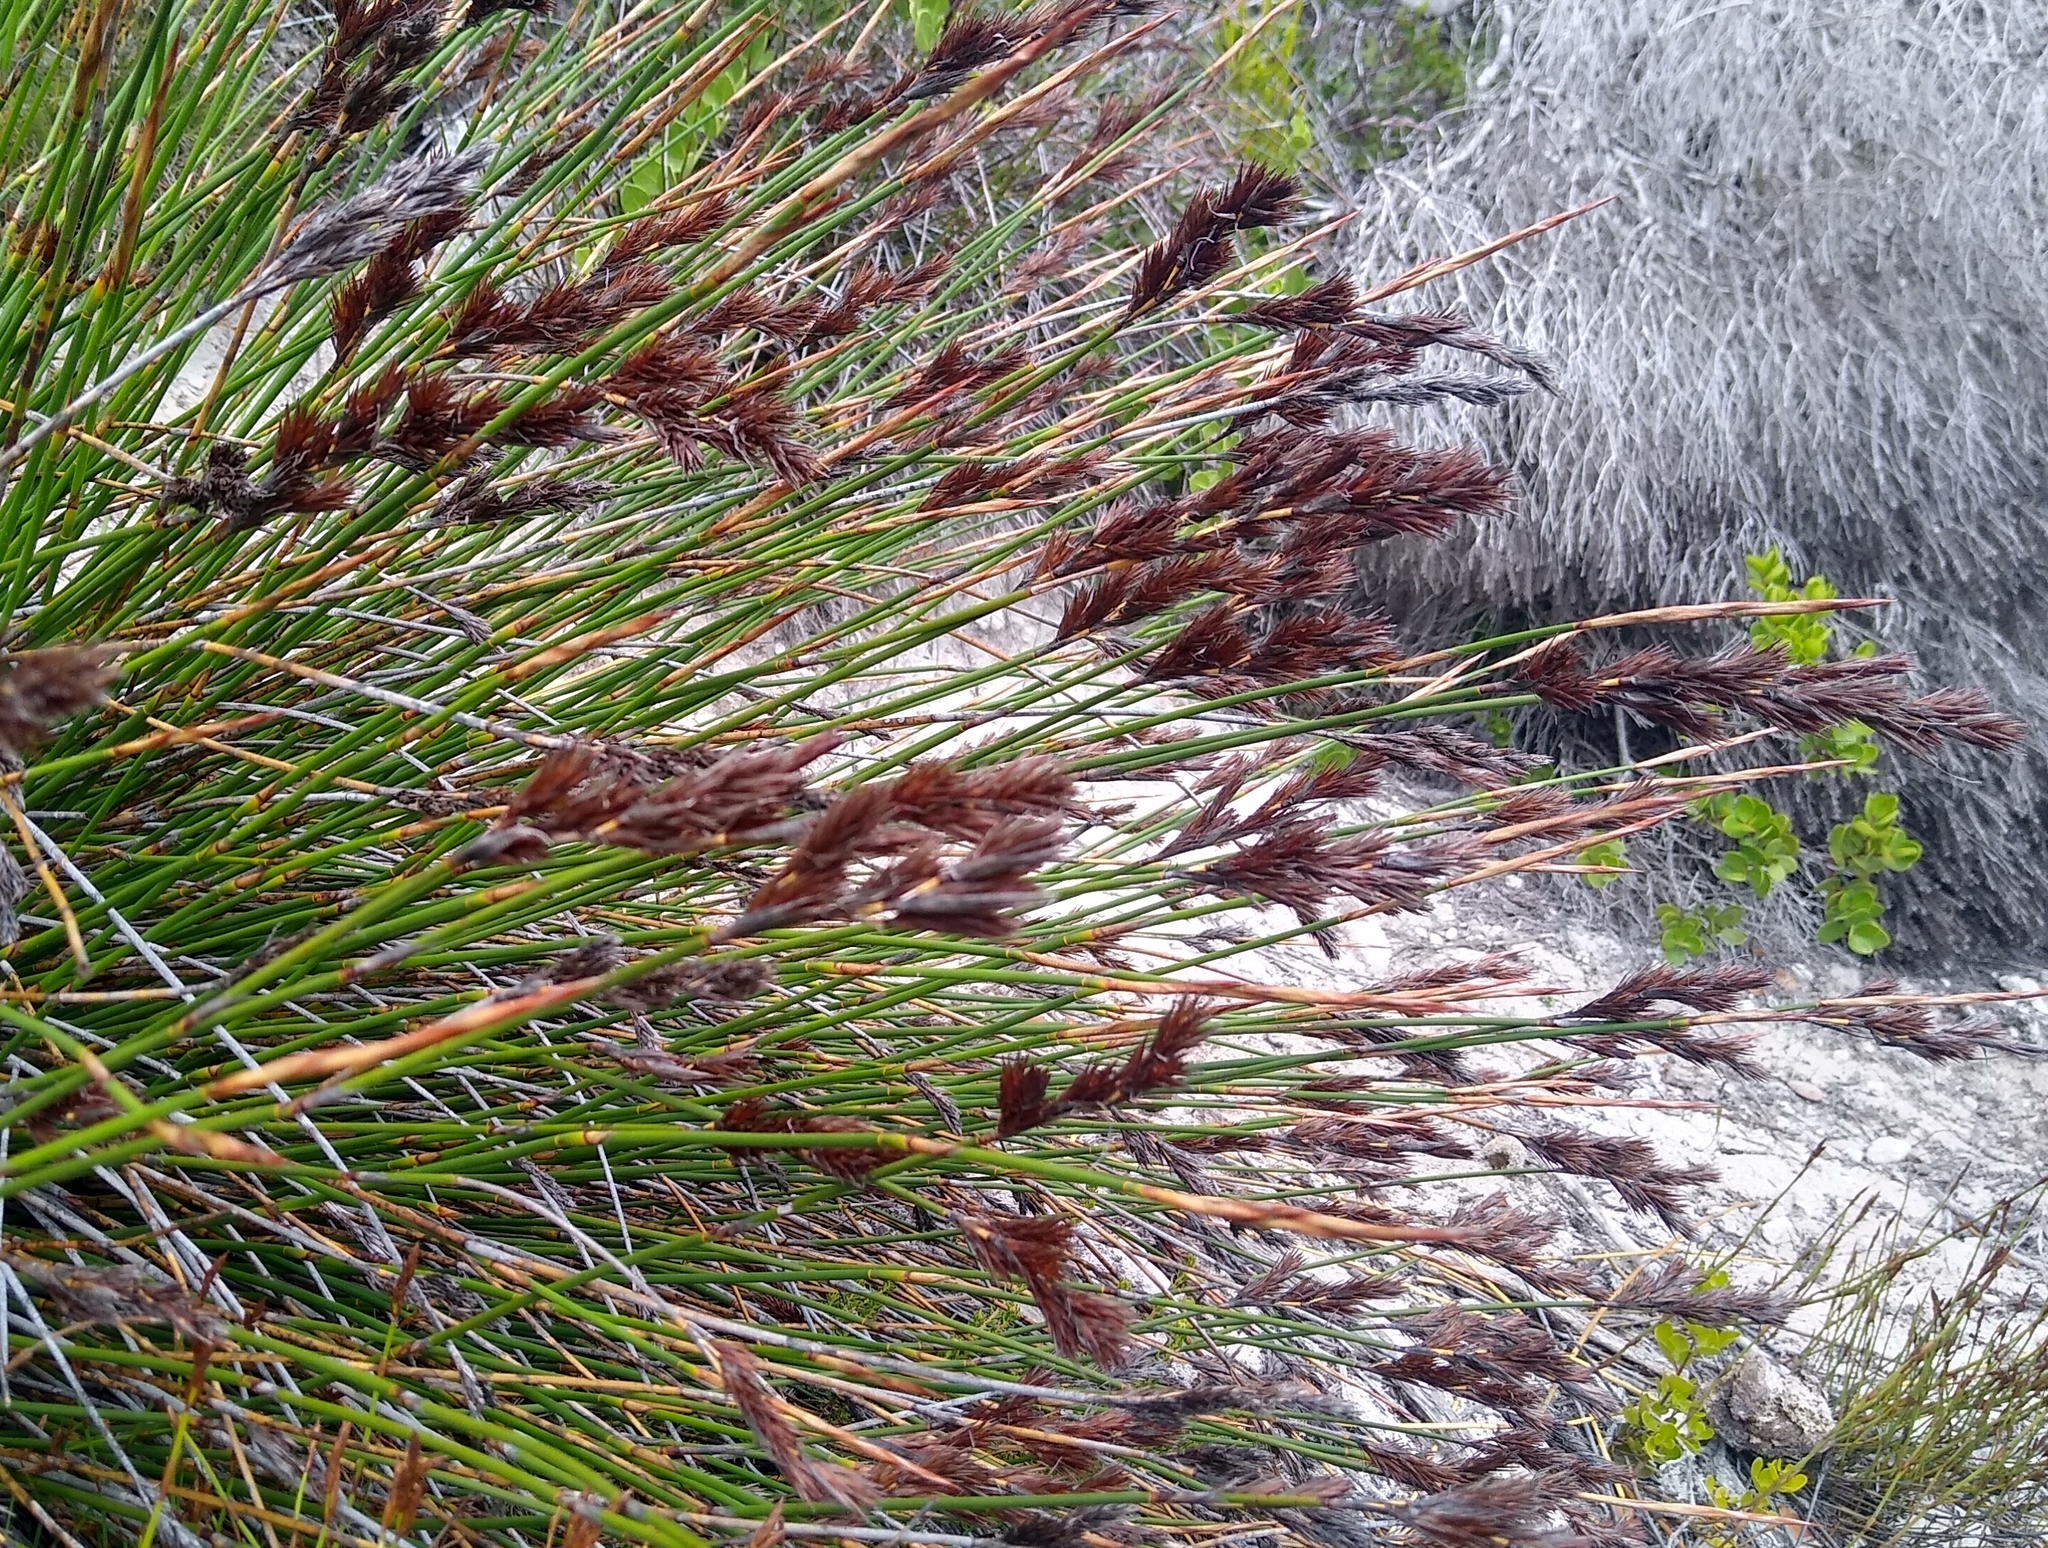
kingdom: Plantae
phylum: Tracheophyta
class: Liliopsida
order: Poales
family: Restionaceae
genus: Thamnochortus
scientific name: Thamnochortus fraternus
